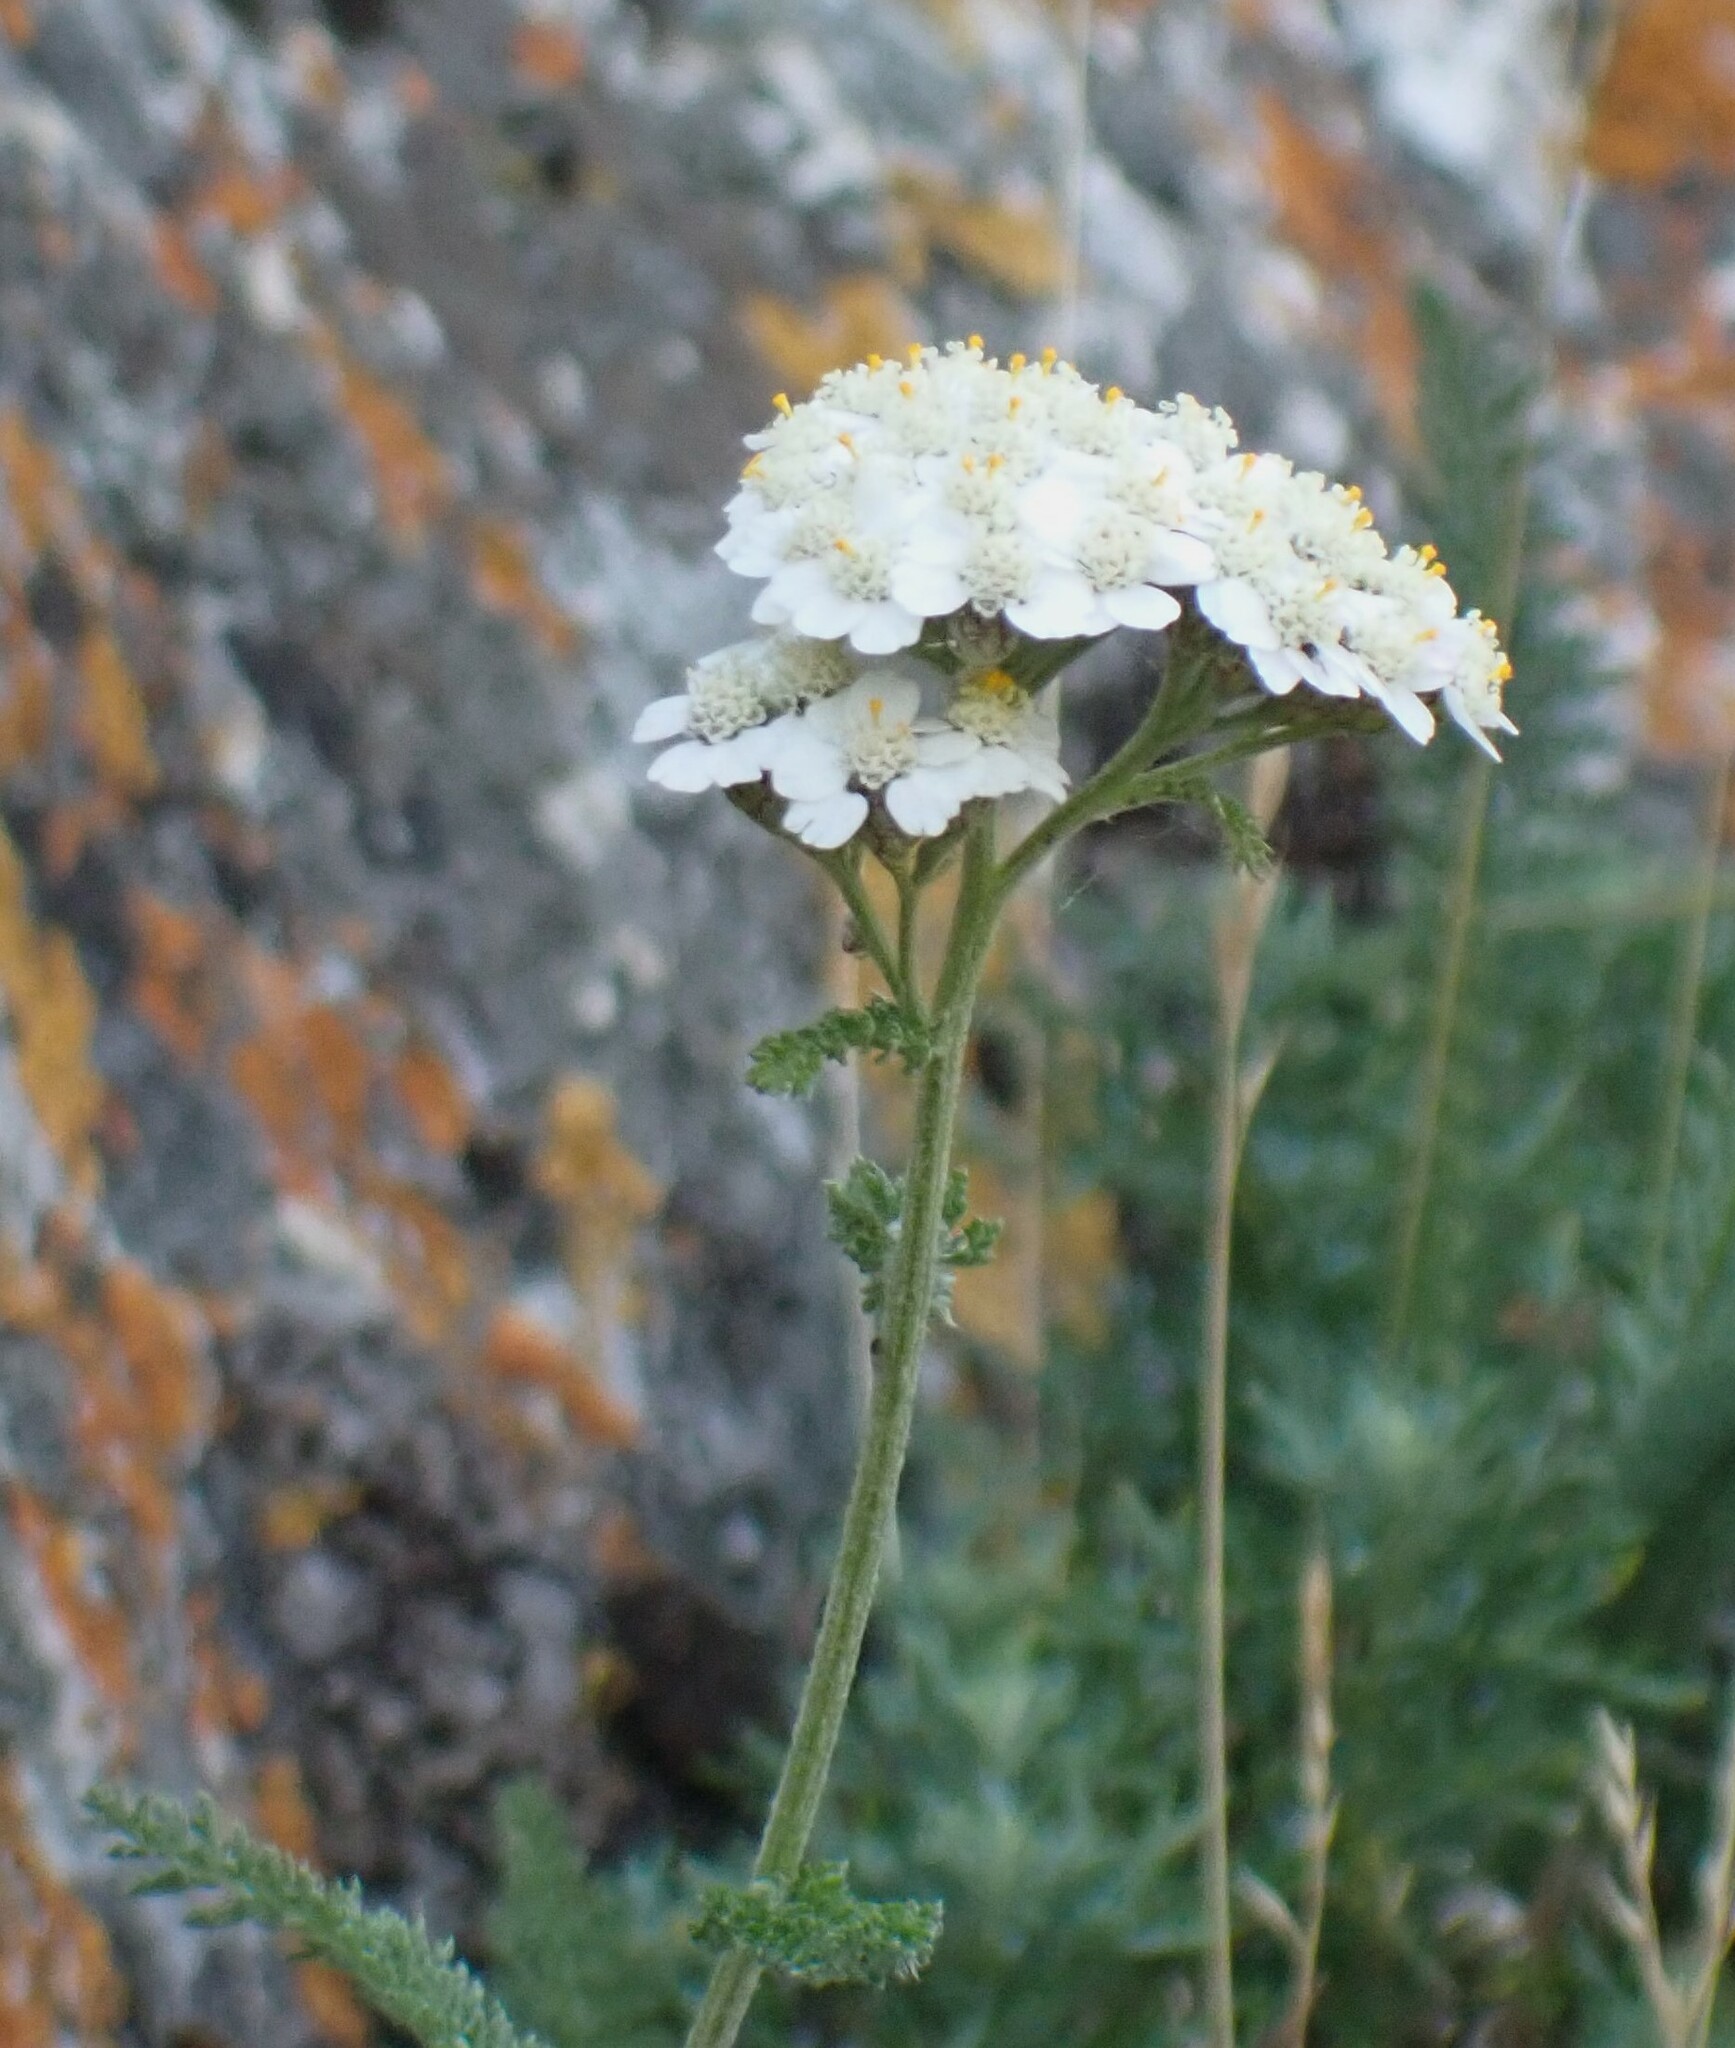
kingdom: Plantae
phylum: Tracheophyta
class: Magnoliopsida
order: Asterales
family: Asteraceae
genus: Achillea
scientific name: Achillea millefolium
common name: Yarrow
